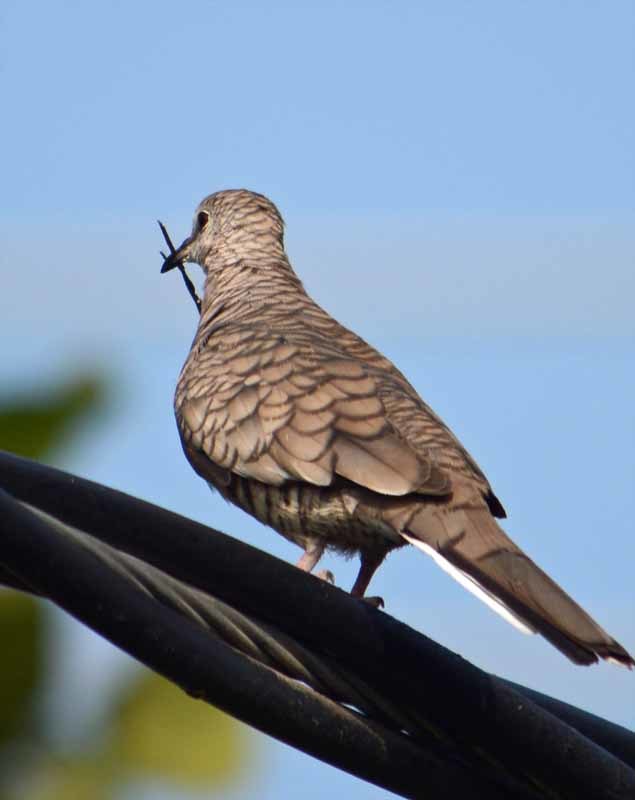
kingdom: Animalia
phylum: Chordata
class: Aves
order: Columbiformes
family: Columbidae
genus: Columbina
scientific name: Columbina inca
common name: Inca dove
